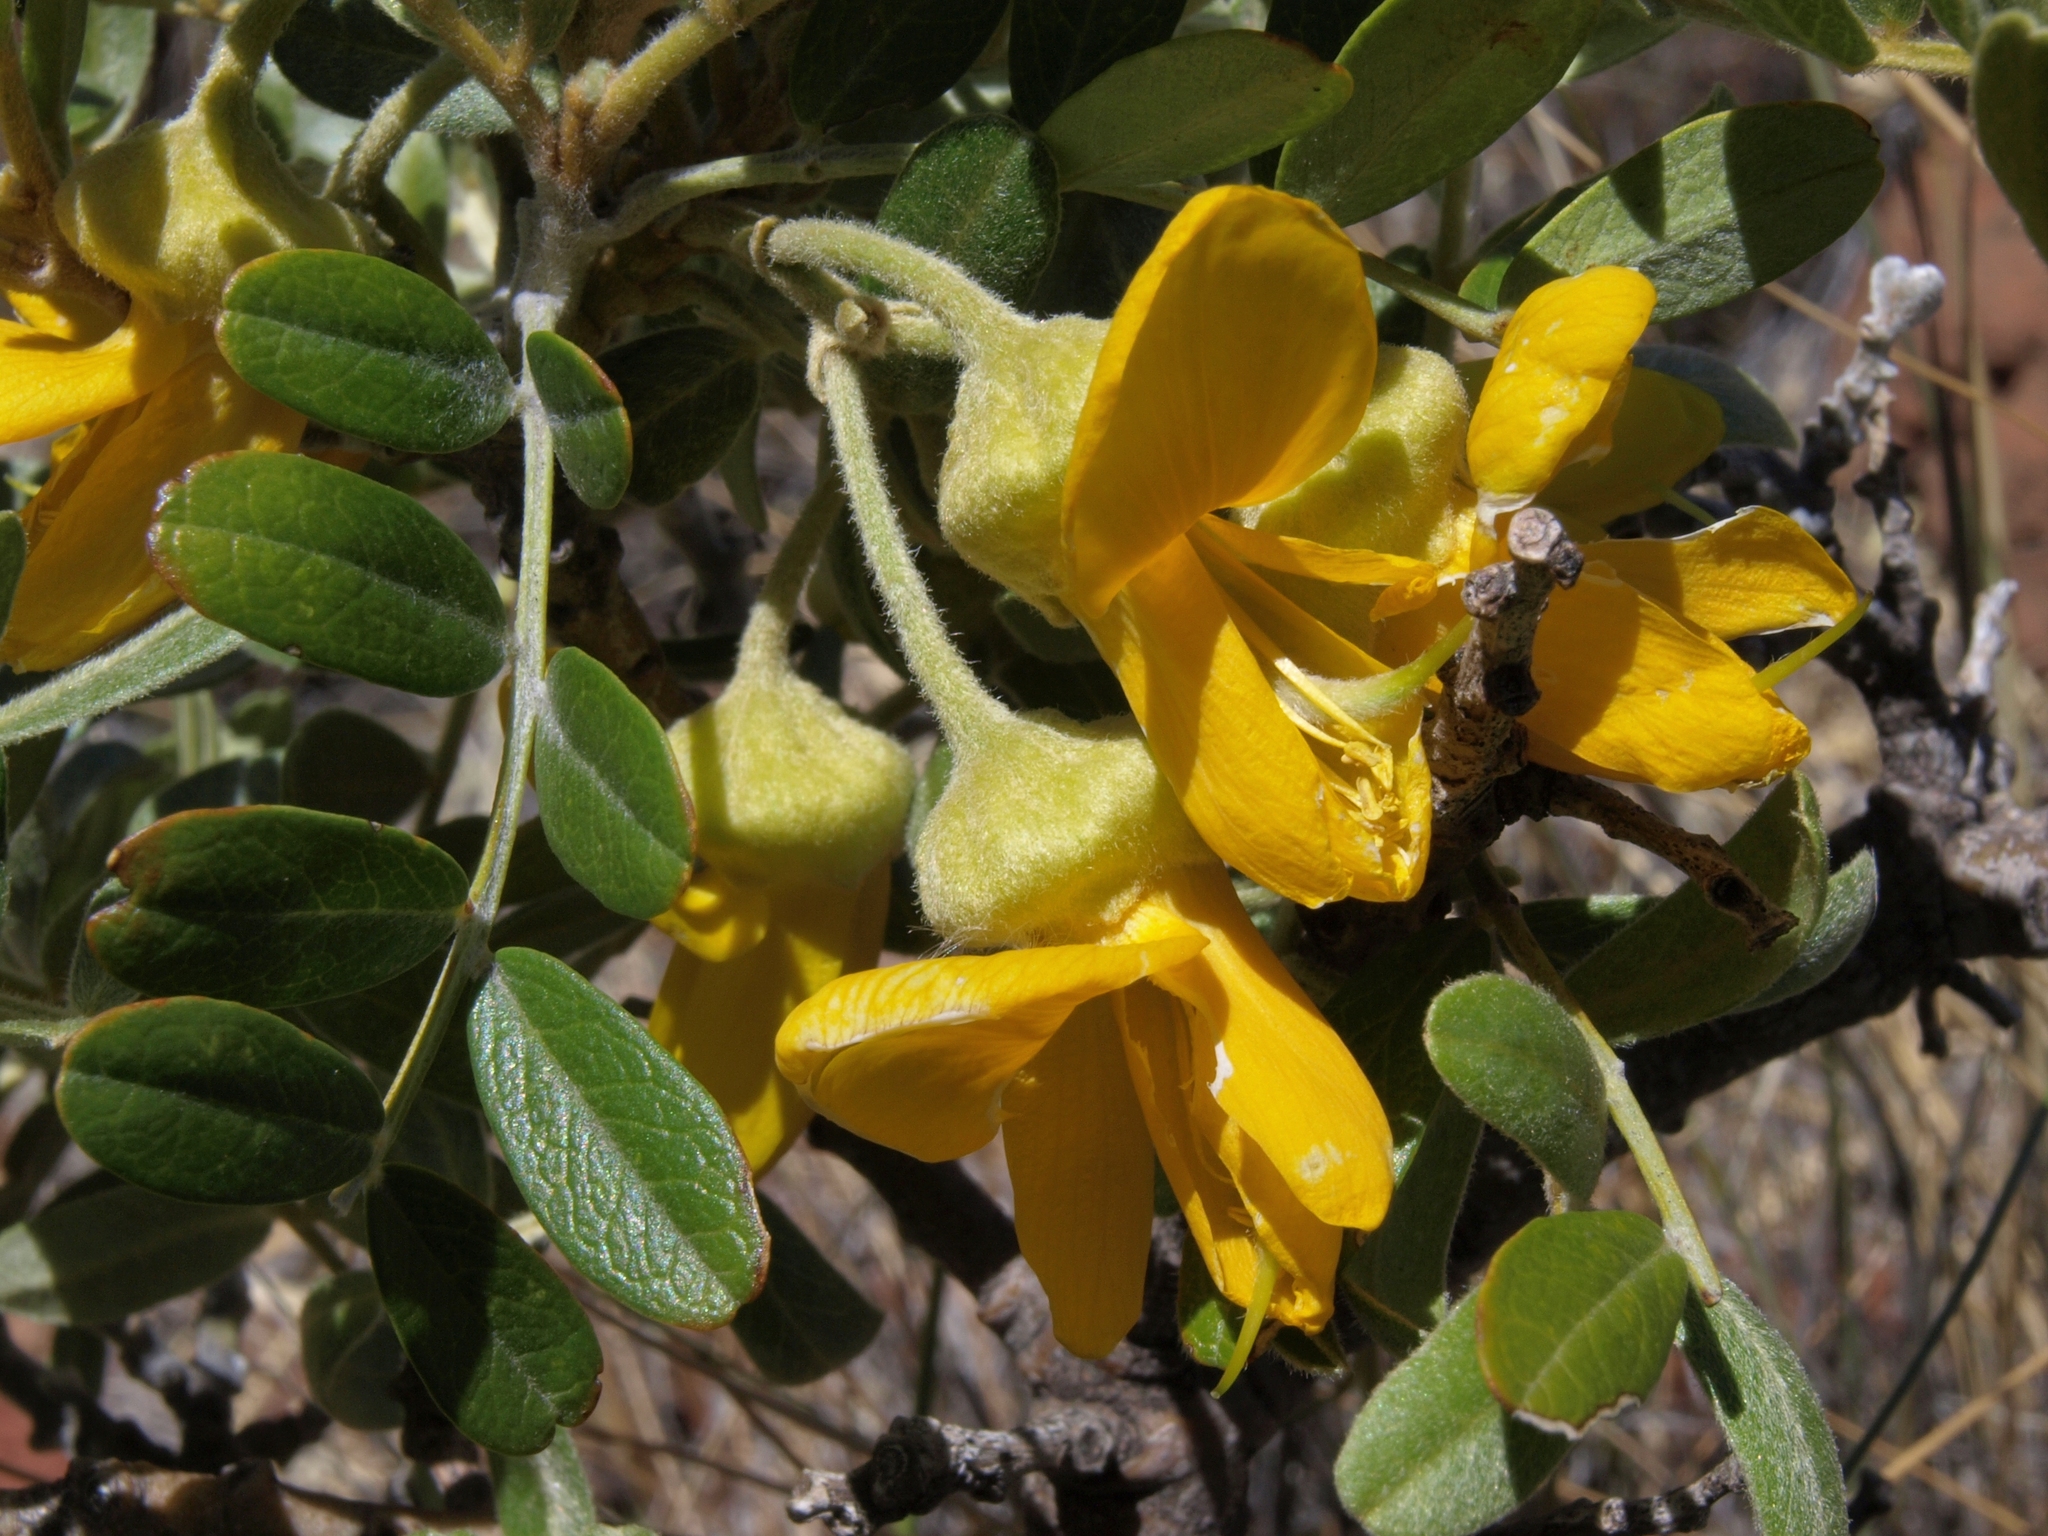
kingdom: Plantae
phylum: Tracheophyta
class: Magnoliopsida
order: Fabales
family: Fabaceae
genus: Sophora
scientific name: Sophora chrysophylla
